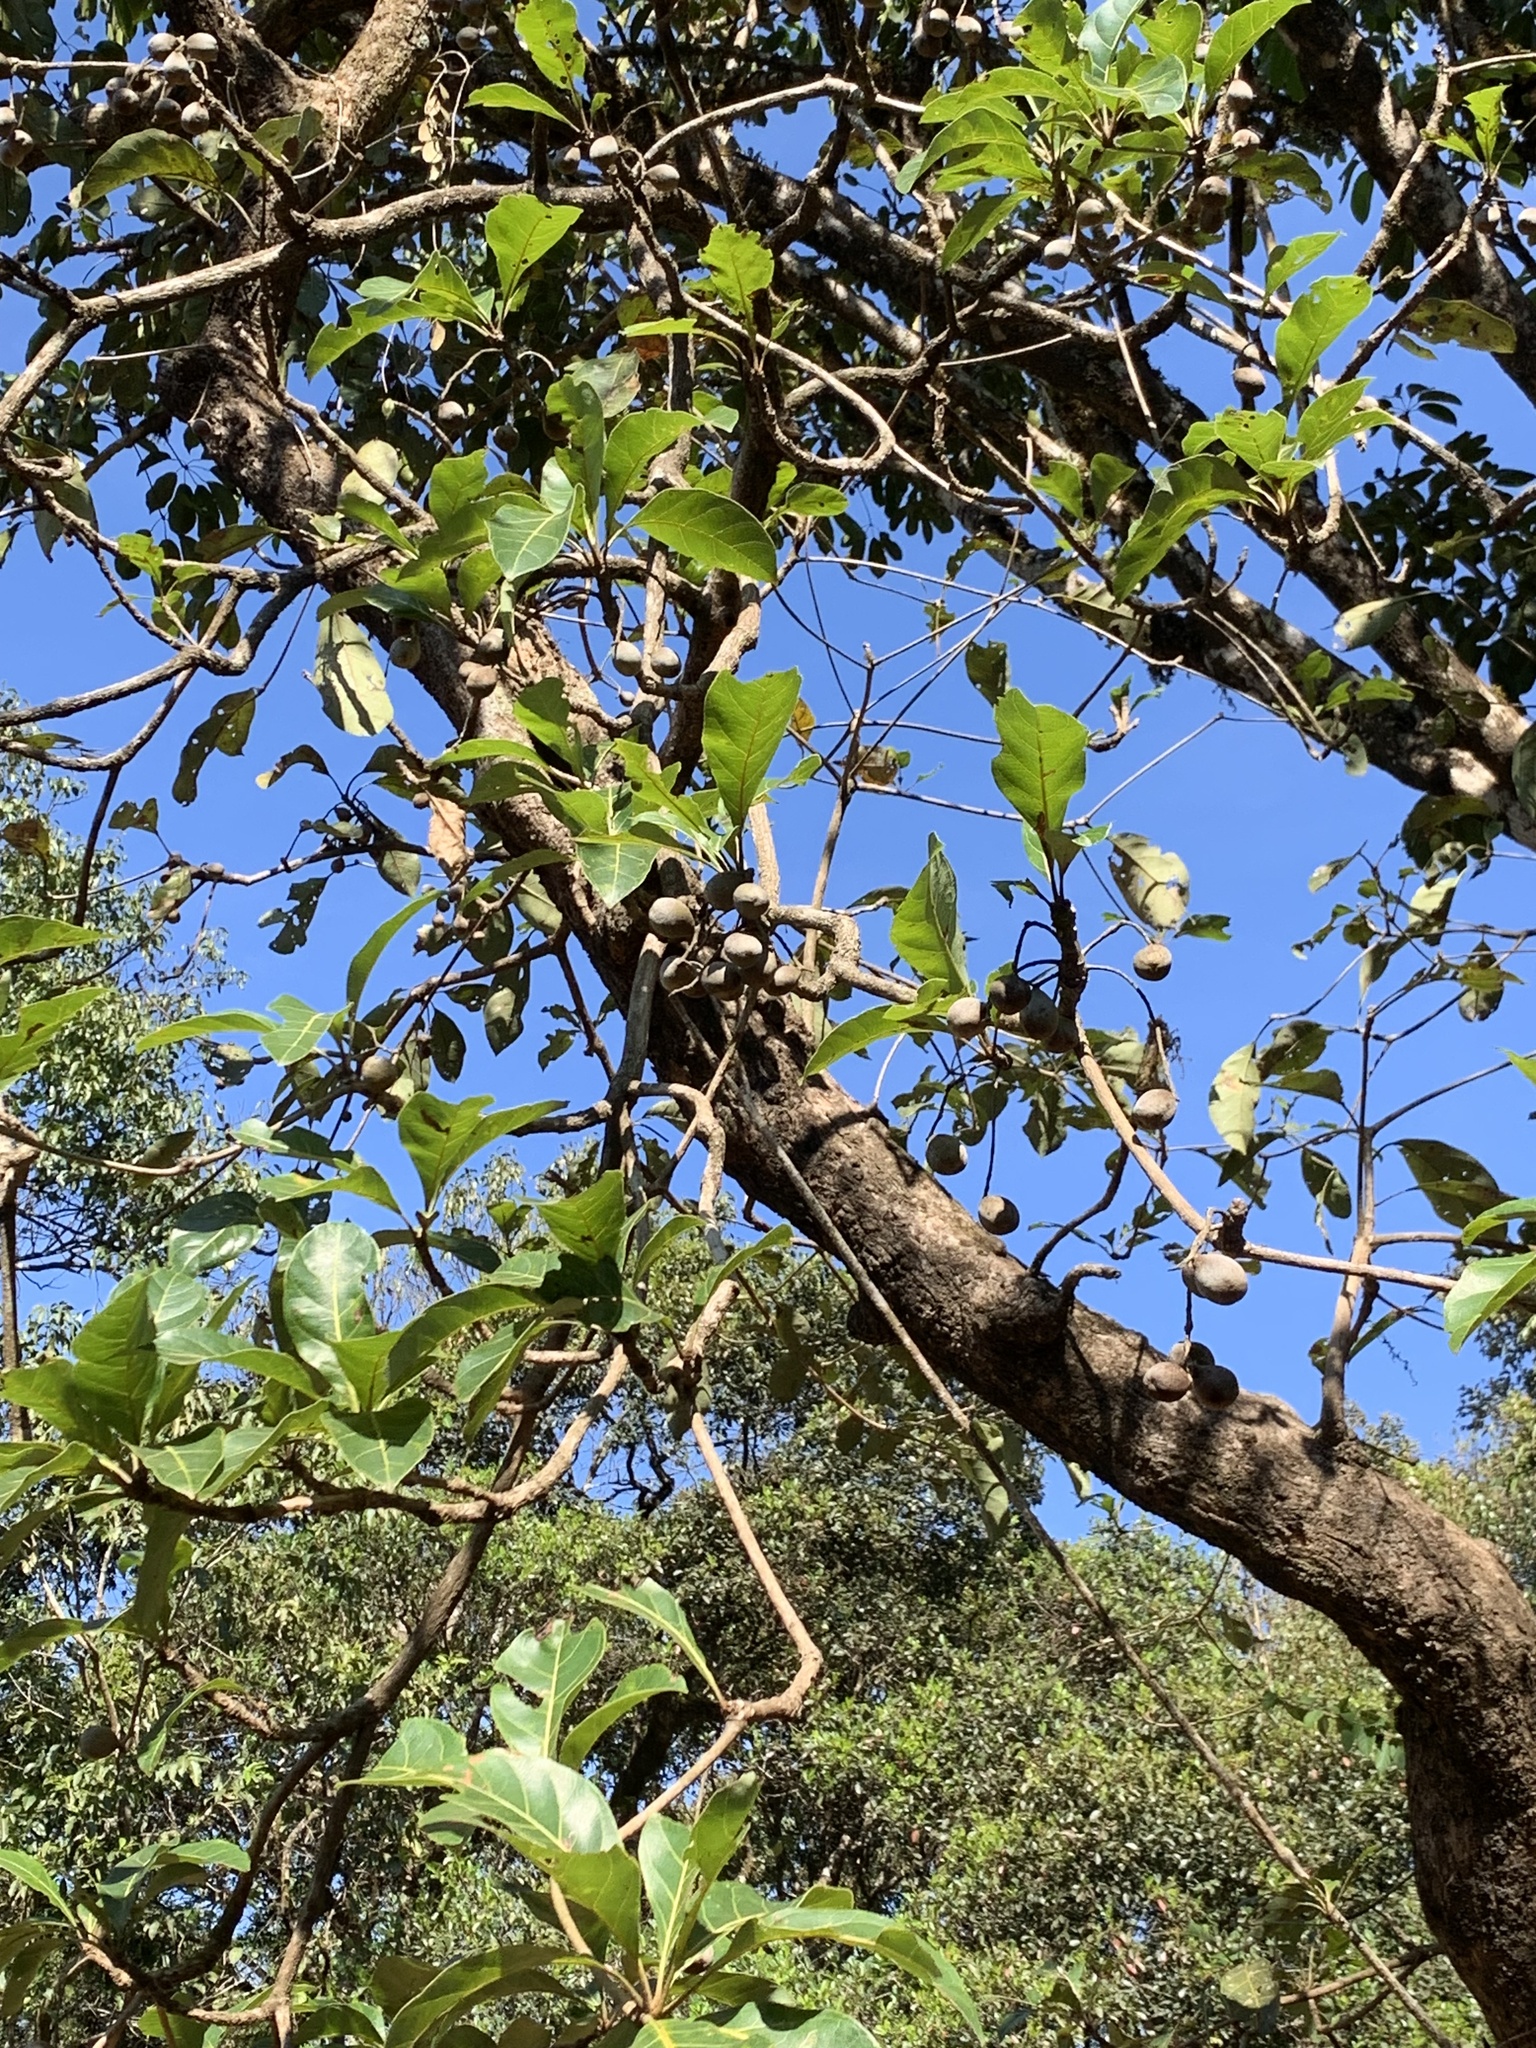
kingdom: Plantae
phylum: Tracheophyta
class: Magnoliopsida
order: Myrtales
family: Combretaceae
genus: Terminalia
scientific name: Terminalia bellirica
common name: Beleric myrobalan
